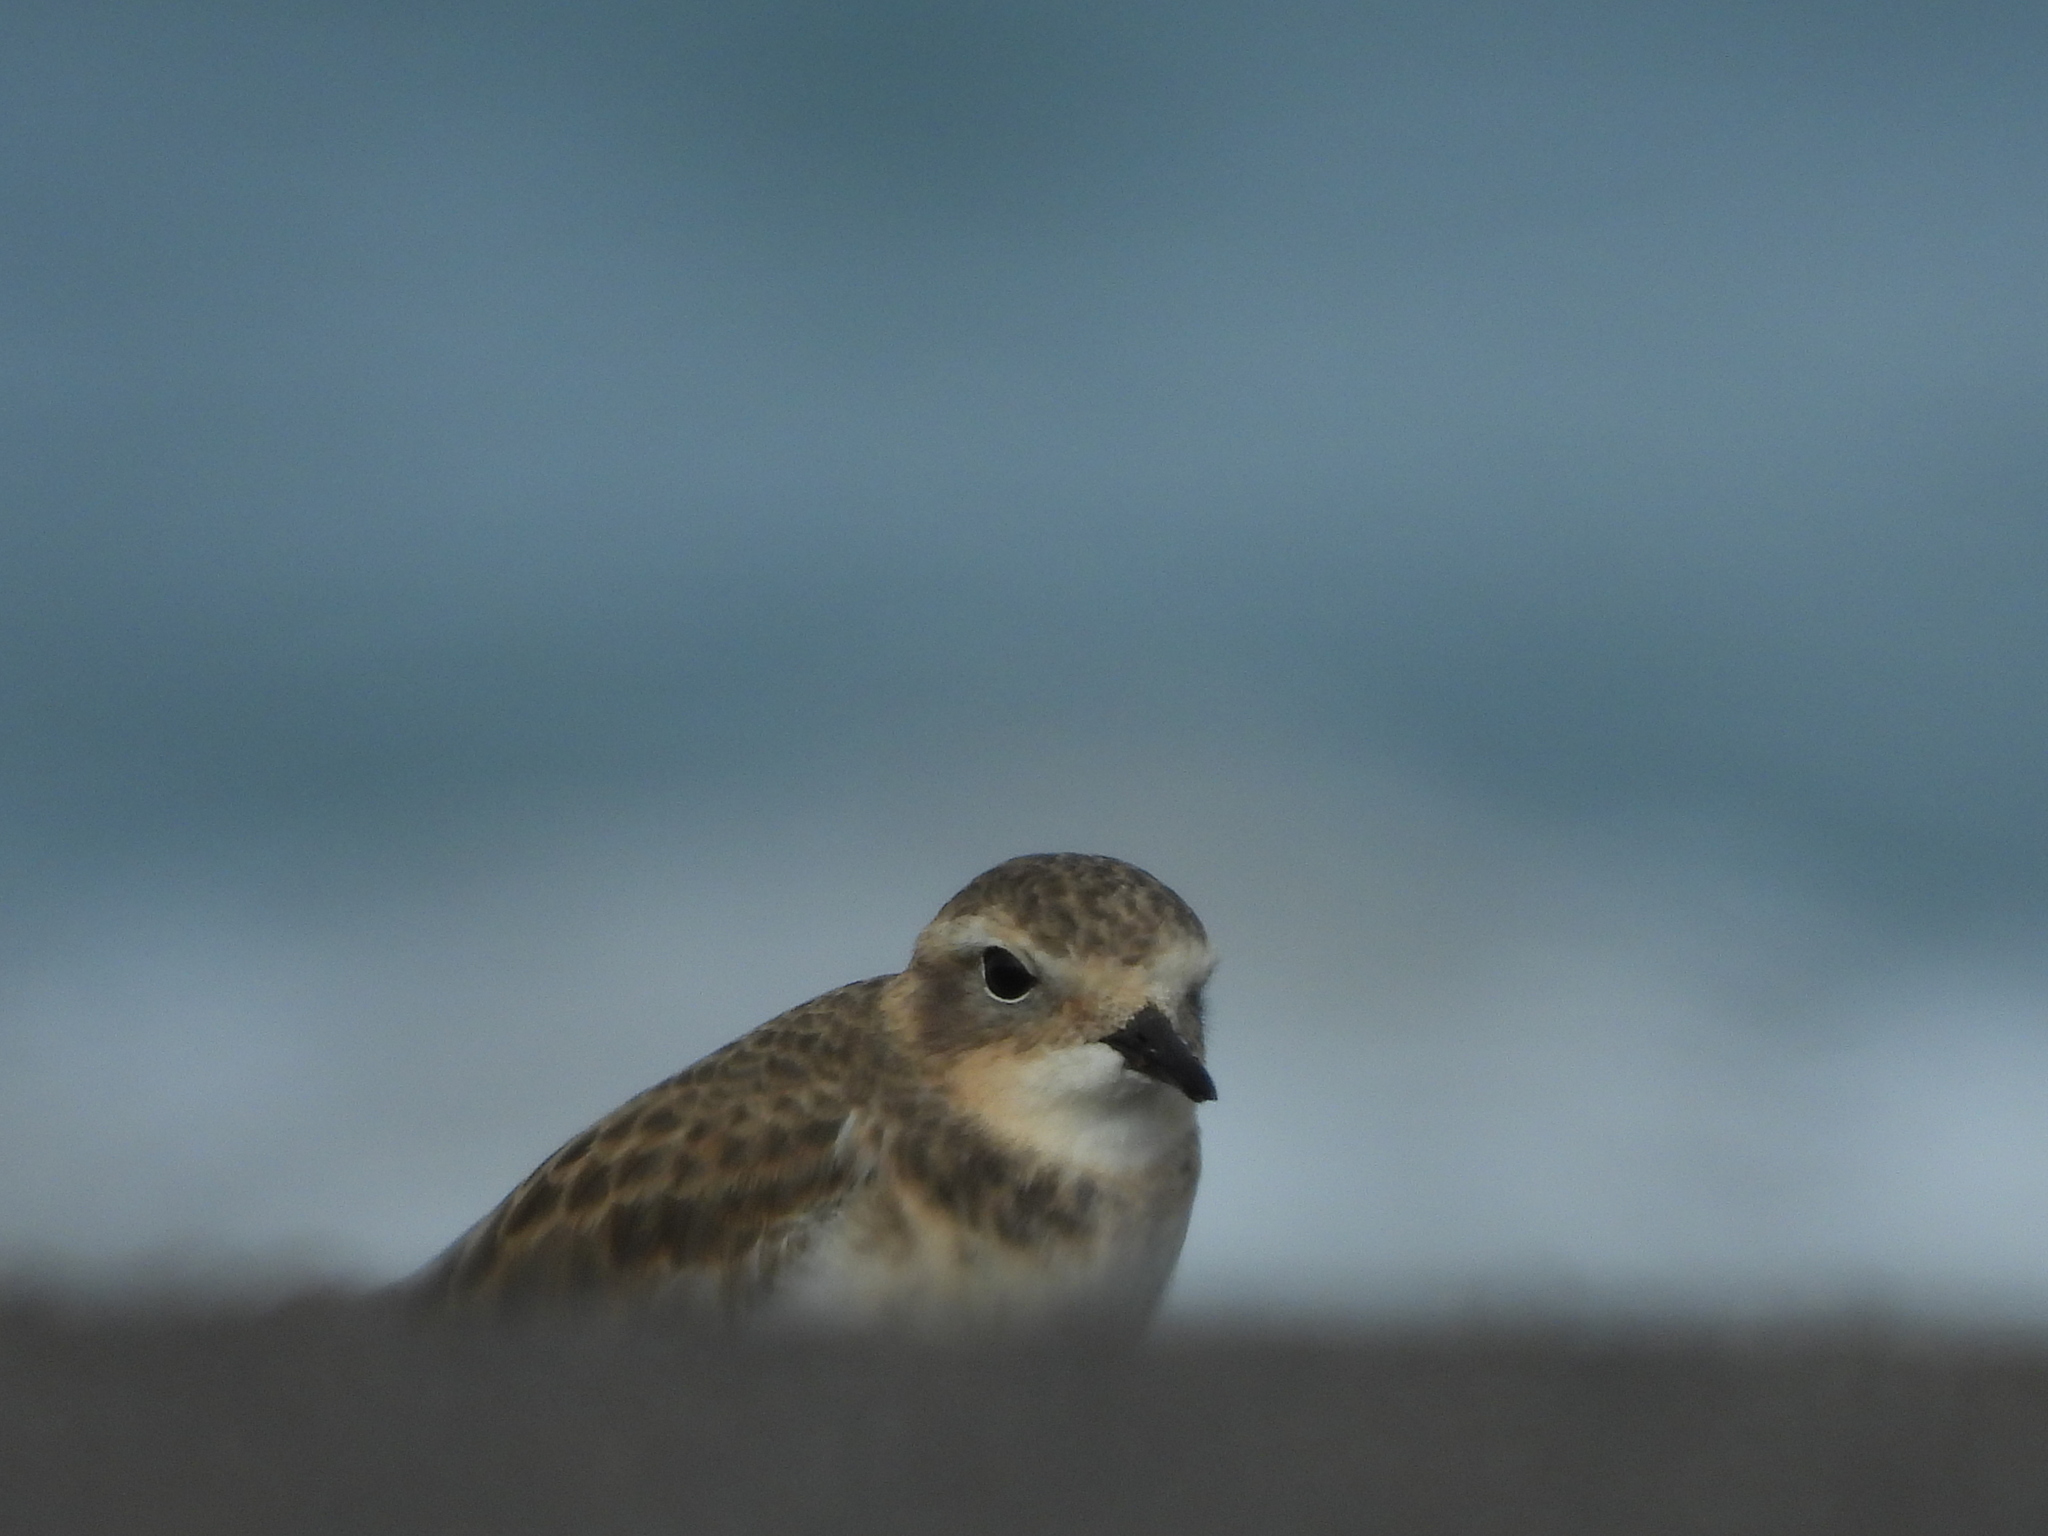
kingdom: Animalia
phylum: Chordata
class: Aves
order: Charadriiformes
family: Charadriidae
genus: Anarhynchus
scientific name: Anarhynchus
